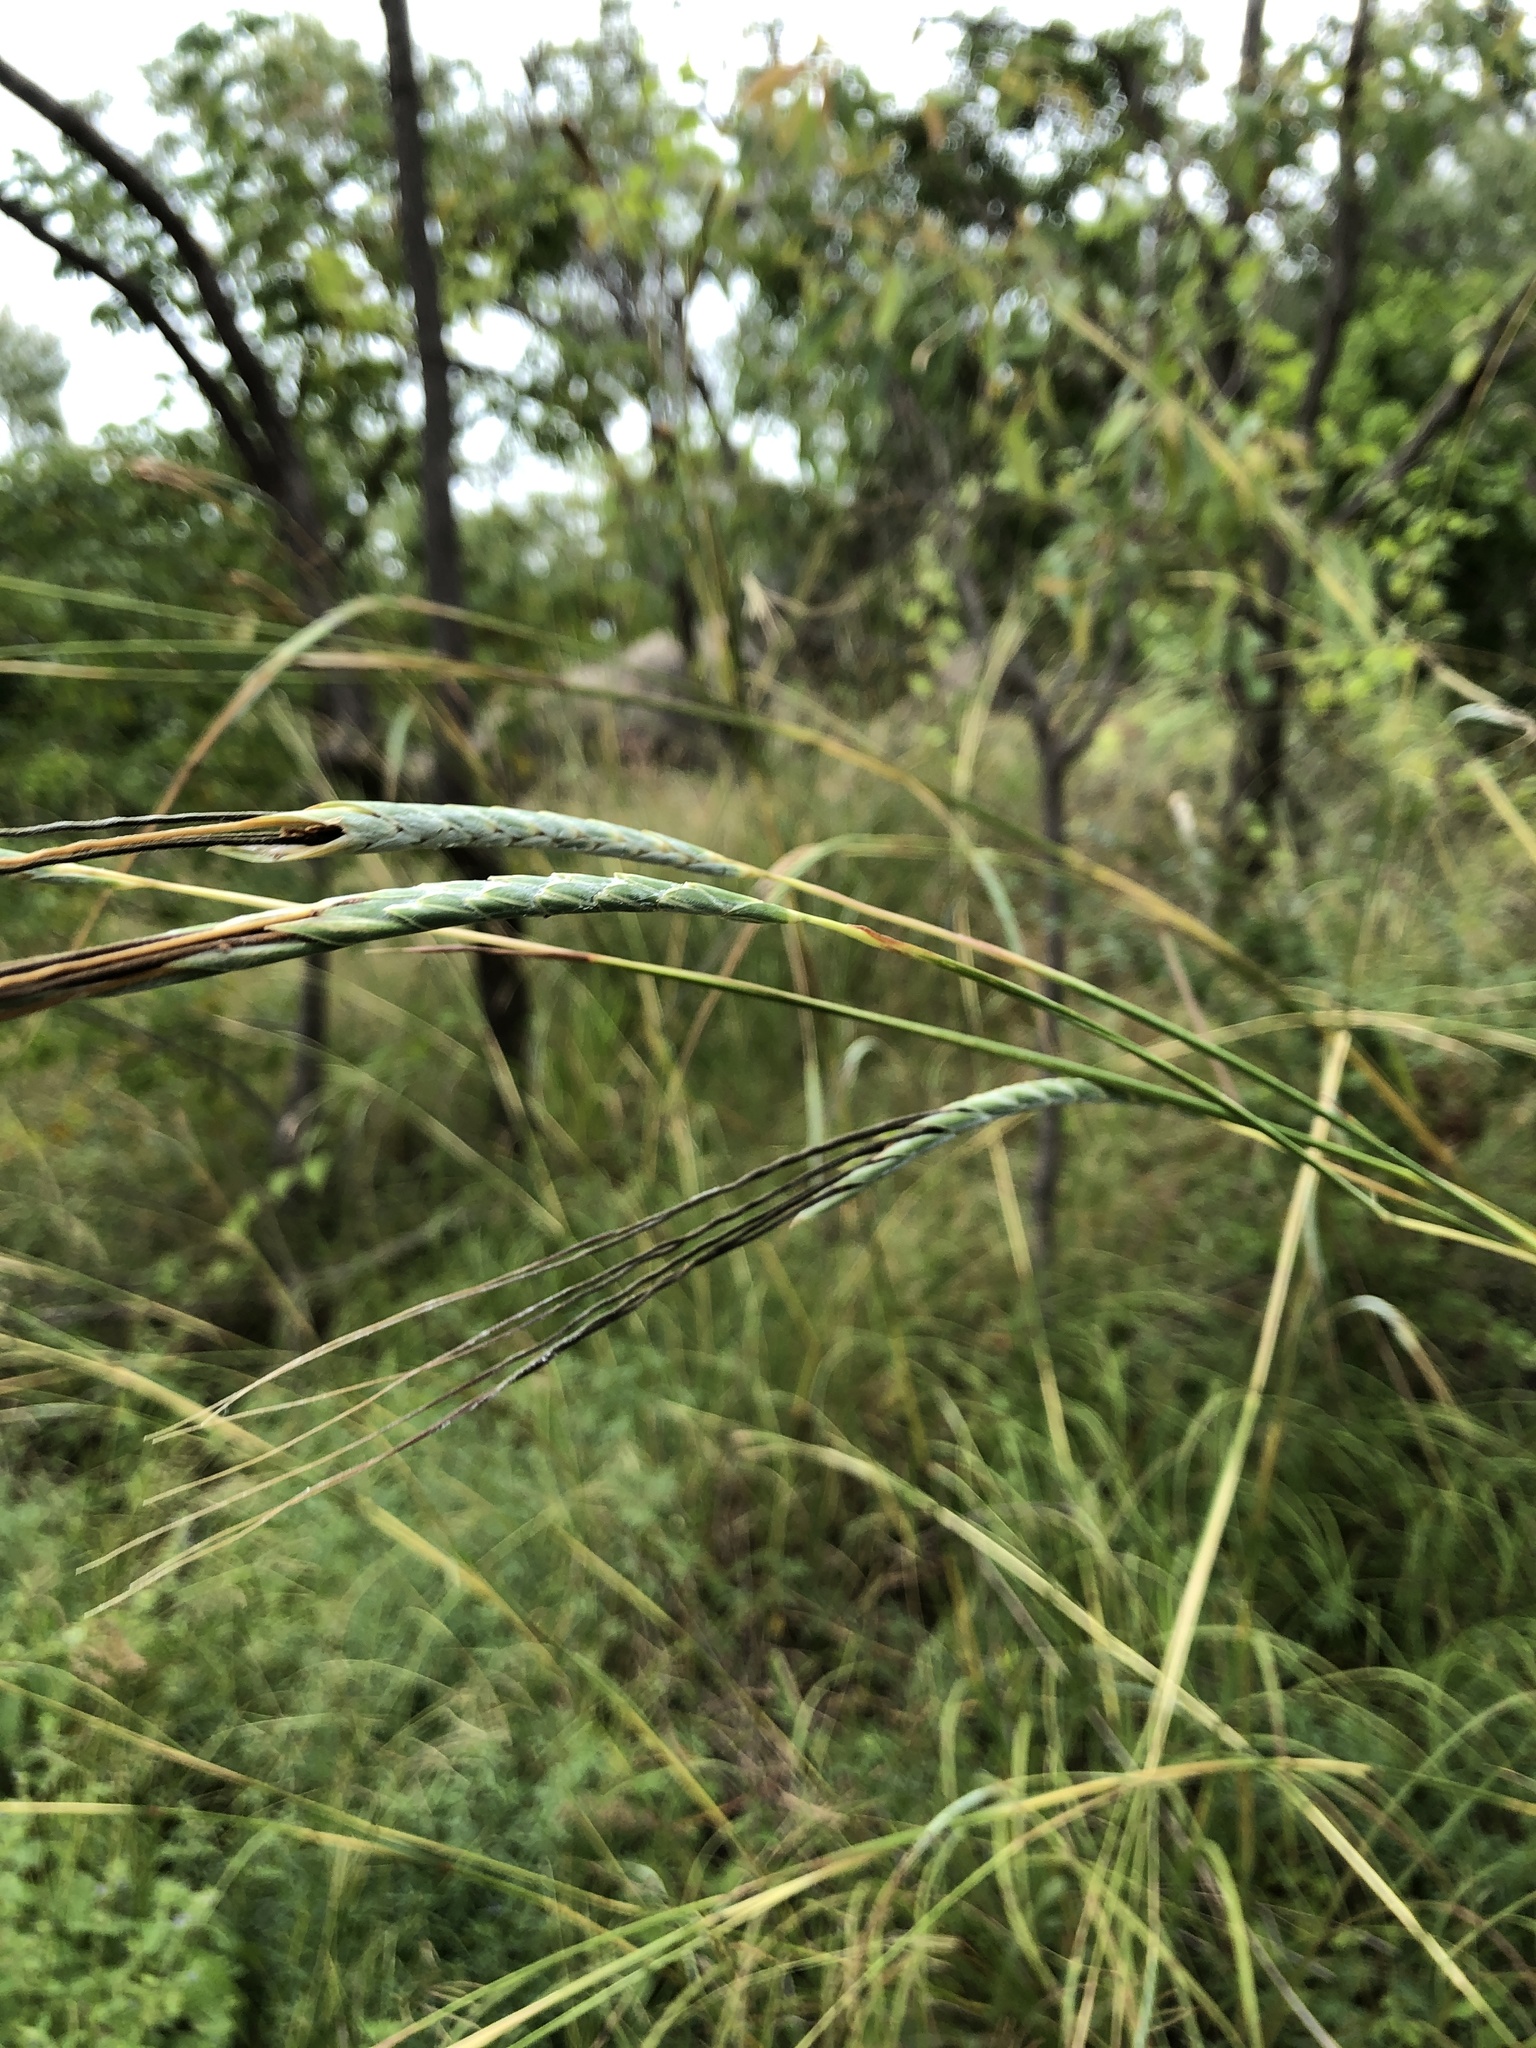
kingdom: Plantae
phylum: Tracheophyta
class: Liliopsida
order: Poales
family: Poaceae
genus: Heteropogon
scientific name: Heteropogon triticeus
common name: Sugar grass
